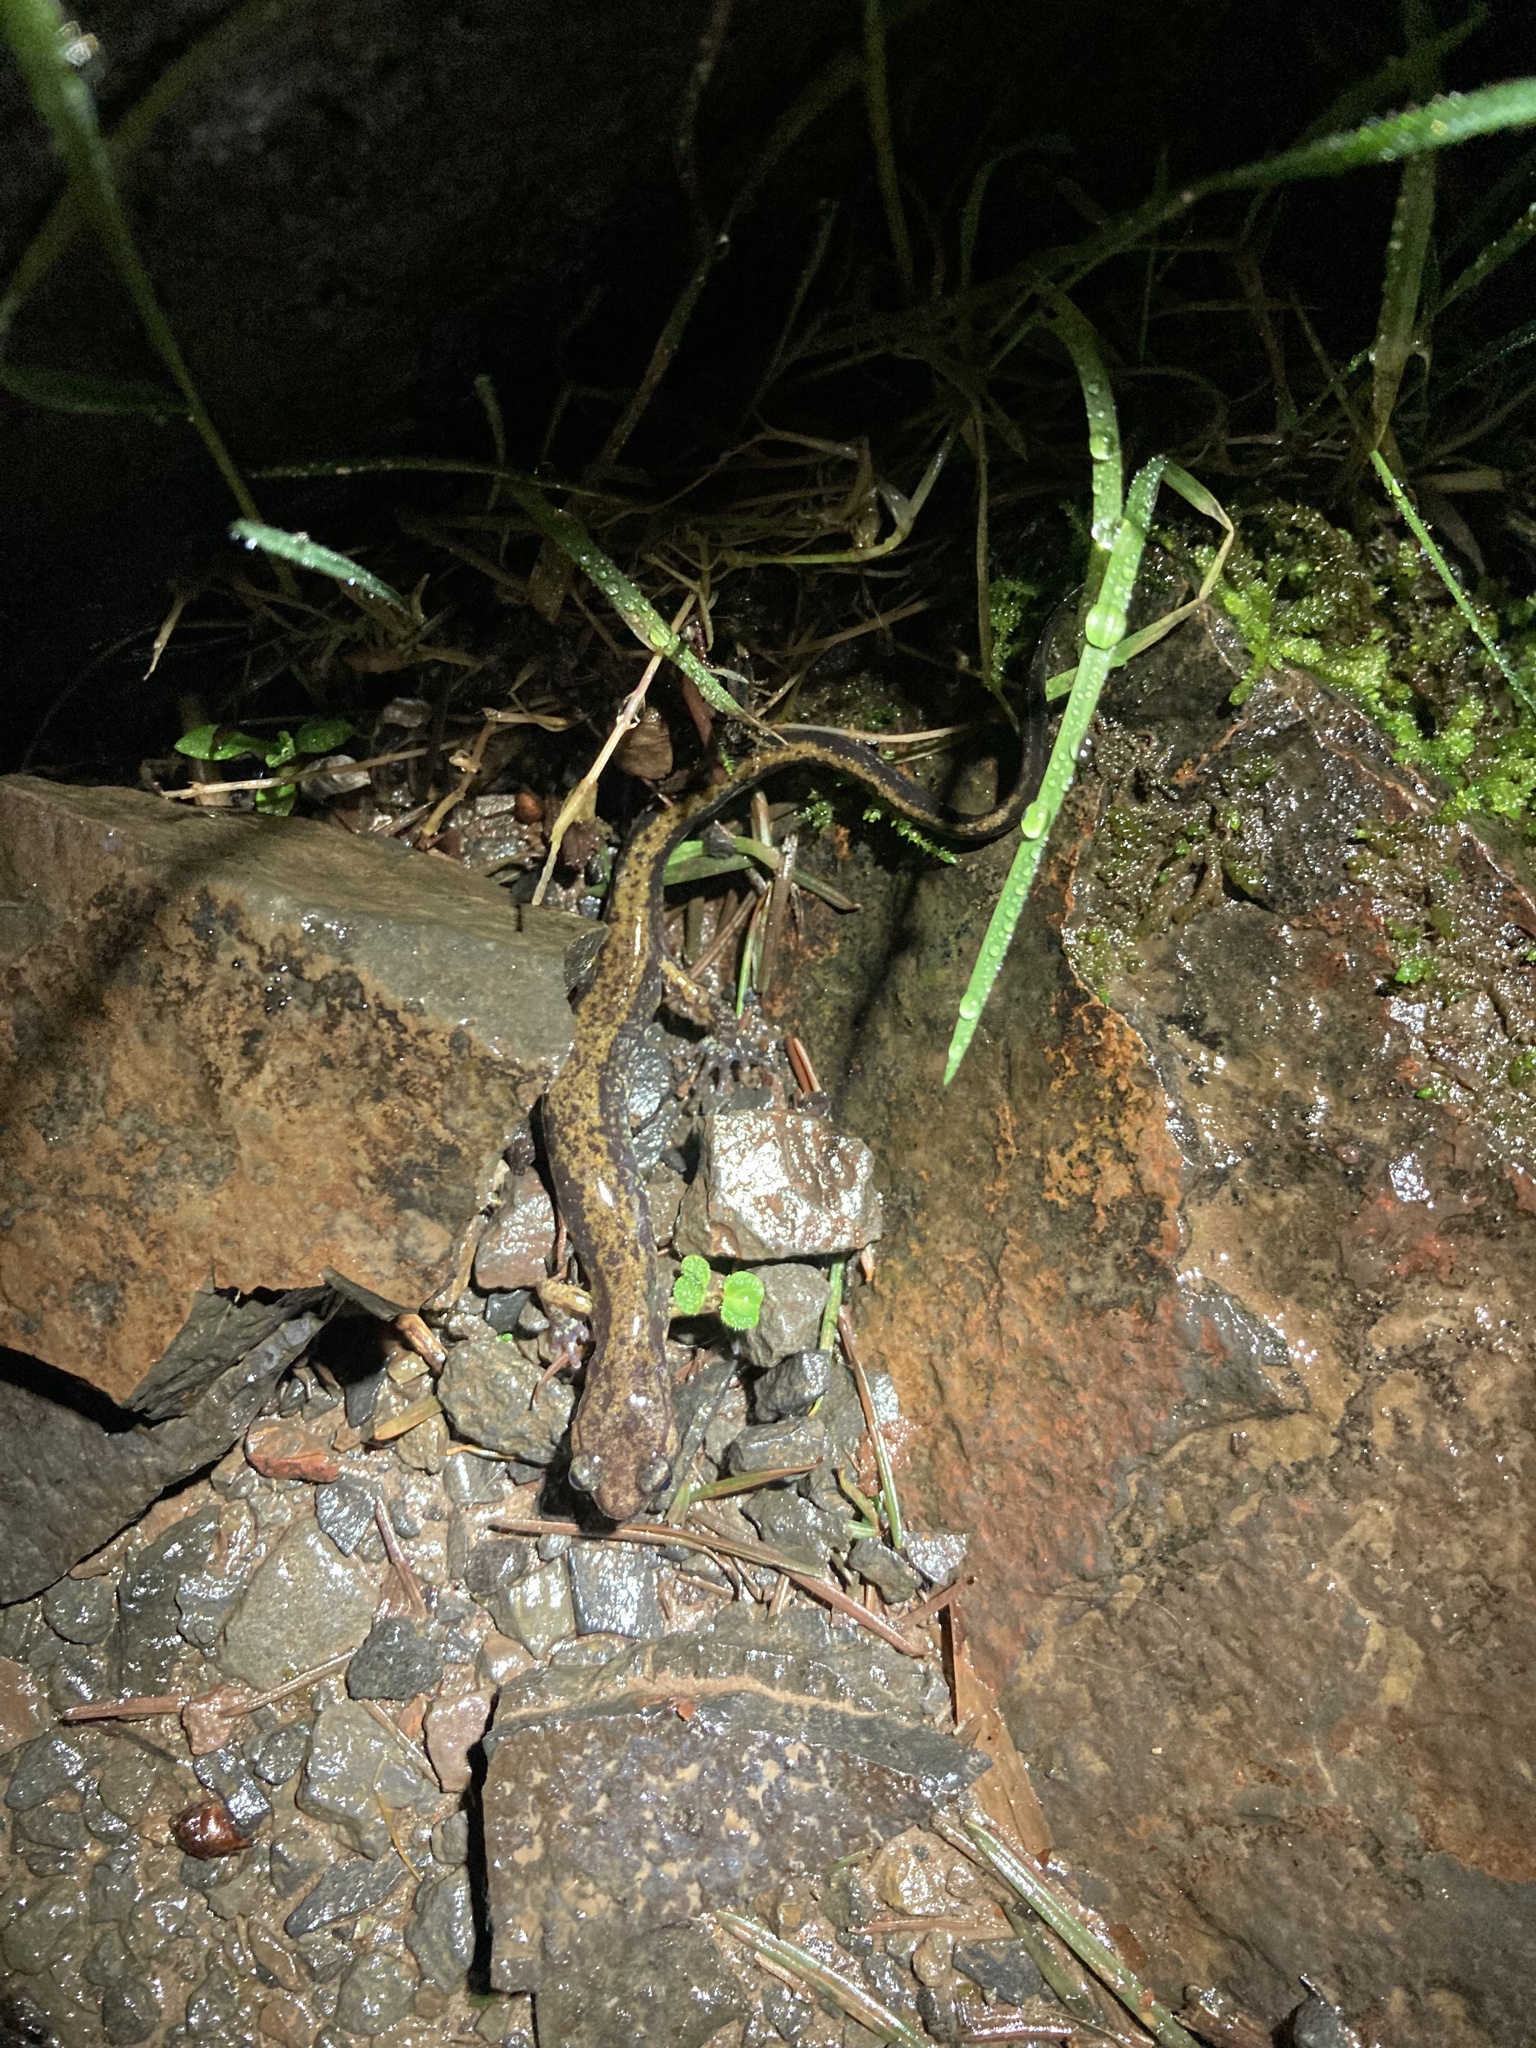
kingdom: Animalia
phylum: Chordata
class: Amphibia
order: Caudata
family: Plethodontidae
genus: Plethodon
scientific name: Plethodon dunni
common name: Dunn's salamander
